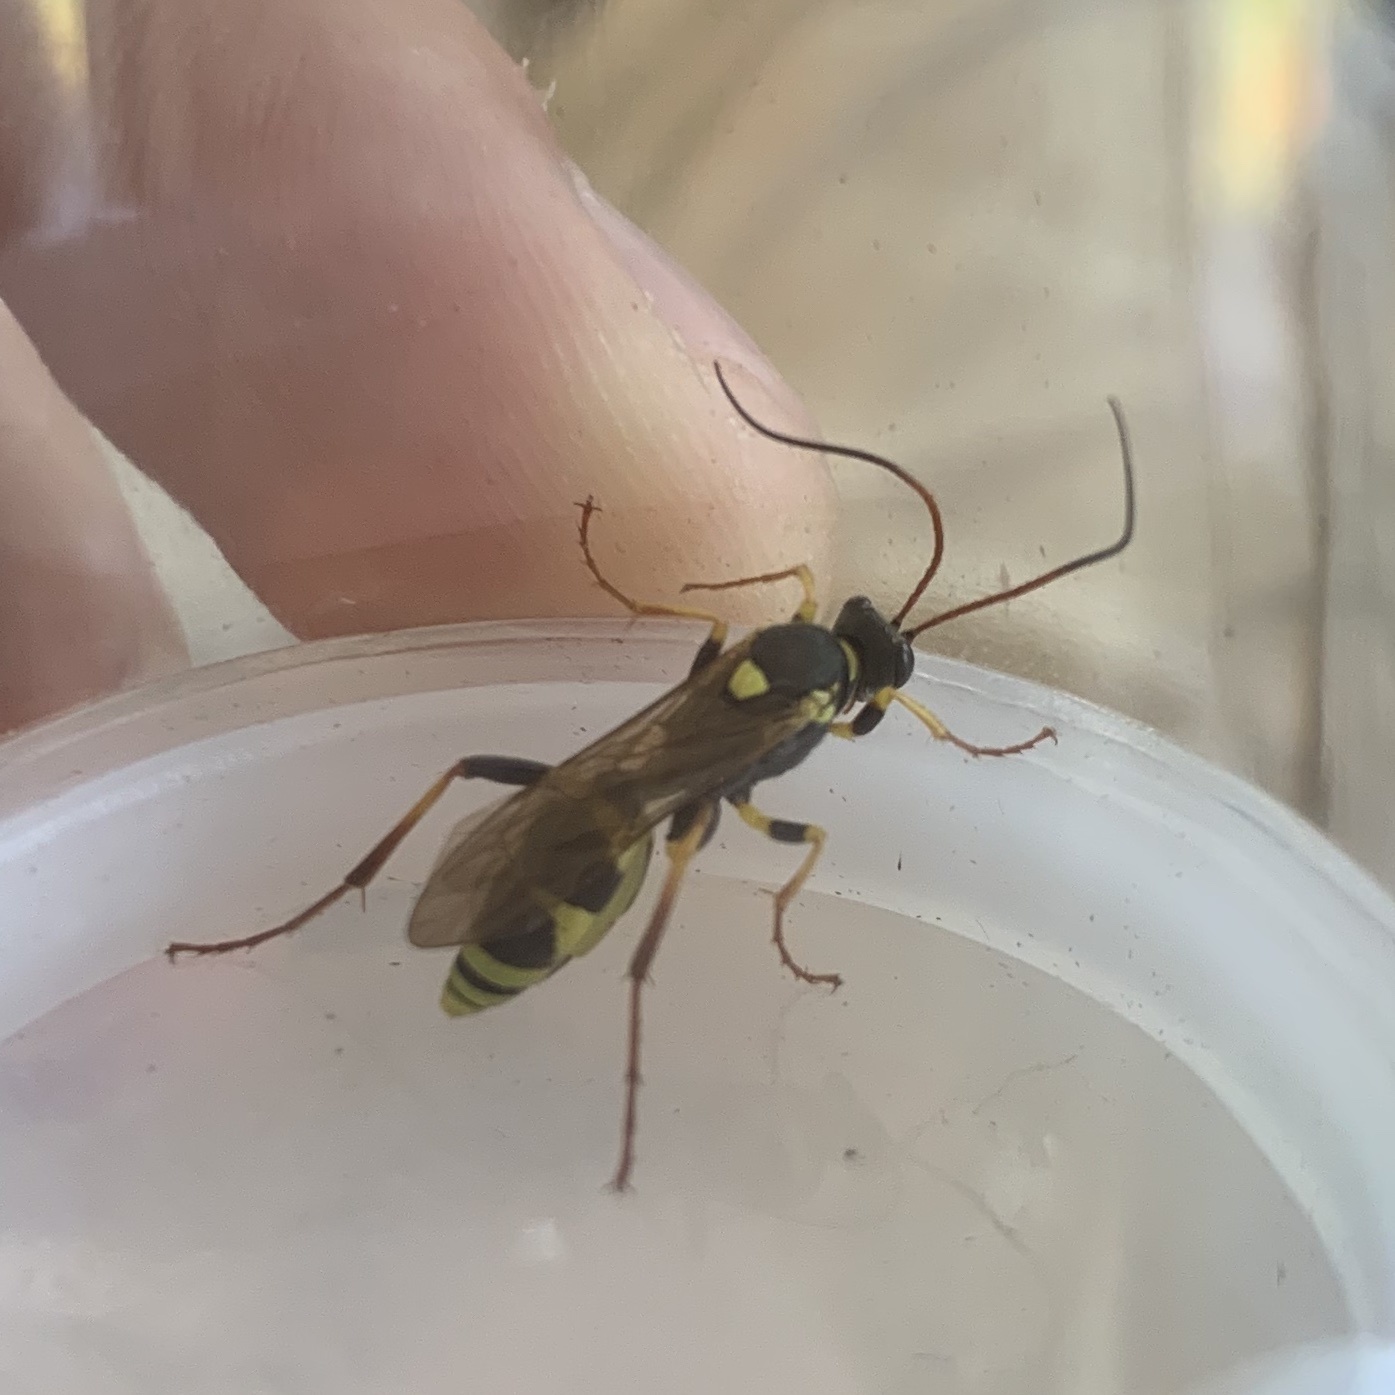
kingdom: Animalia
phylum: Arthropoda
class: Insecta
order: Hymenoptera
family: Ichneumonidae
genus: Amblyteles
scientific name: Amblyteles armatorius
